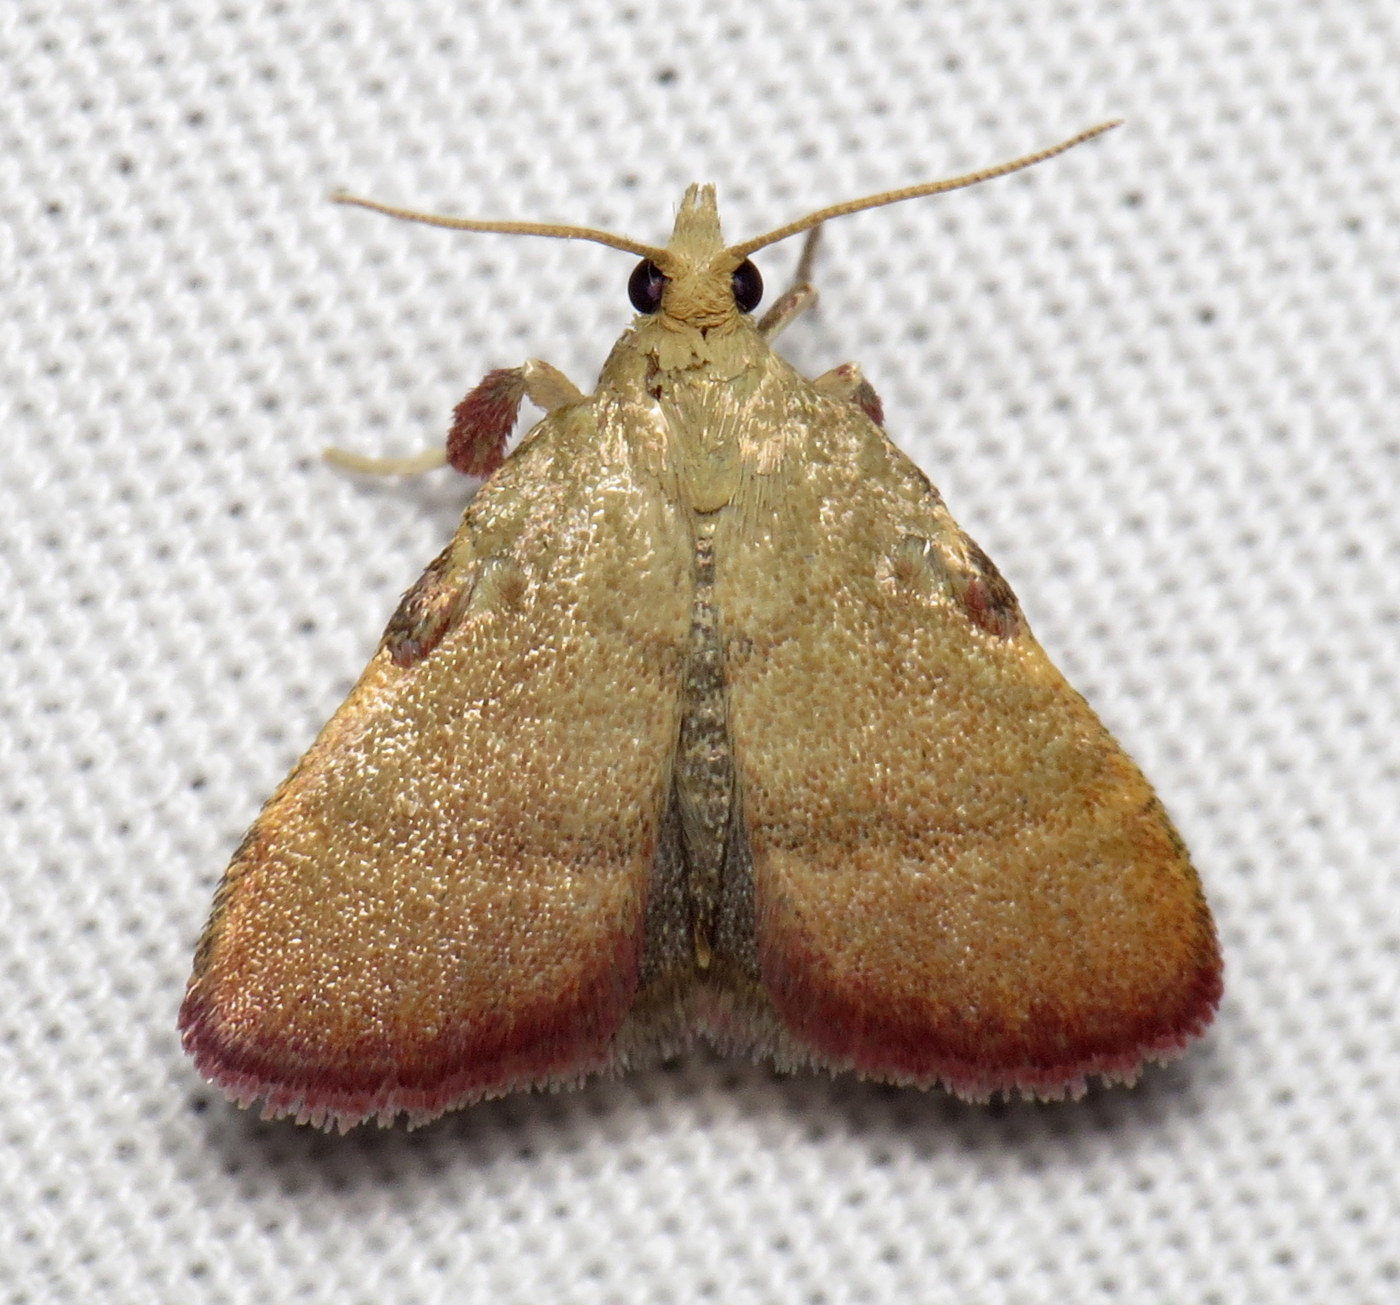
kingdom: Animalia
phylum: Arthropoda
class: Insecta
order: Lepidoptera
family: Pyralidae
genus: Condylolomia
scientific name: Condylolomia participialis
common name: Drab condylolomia moth
